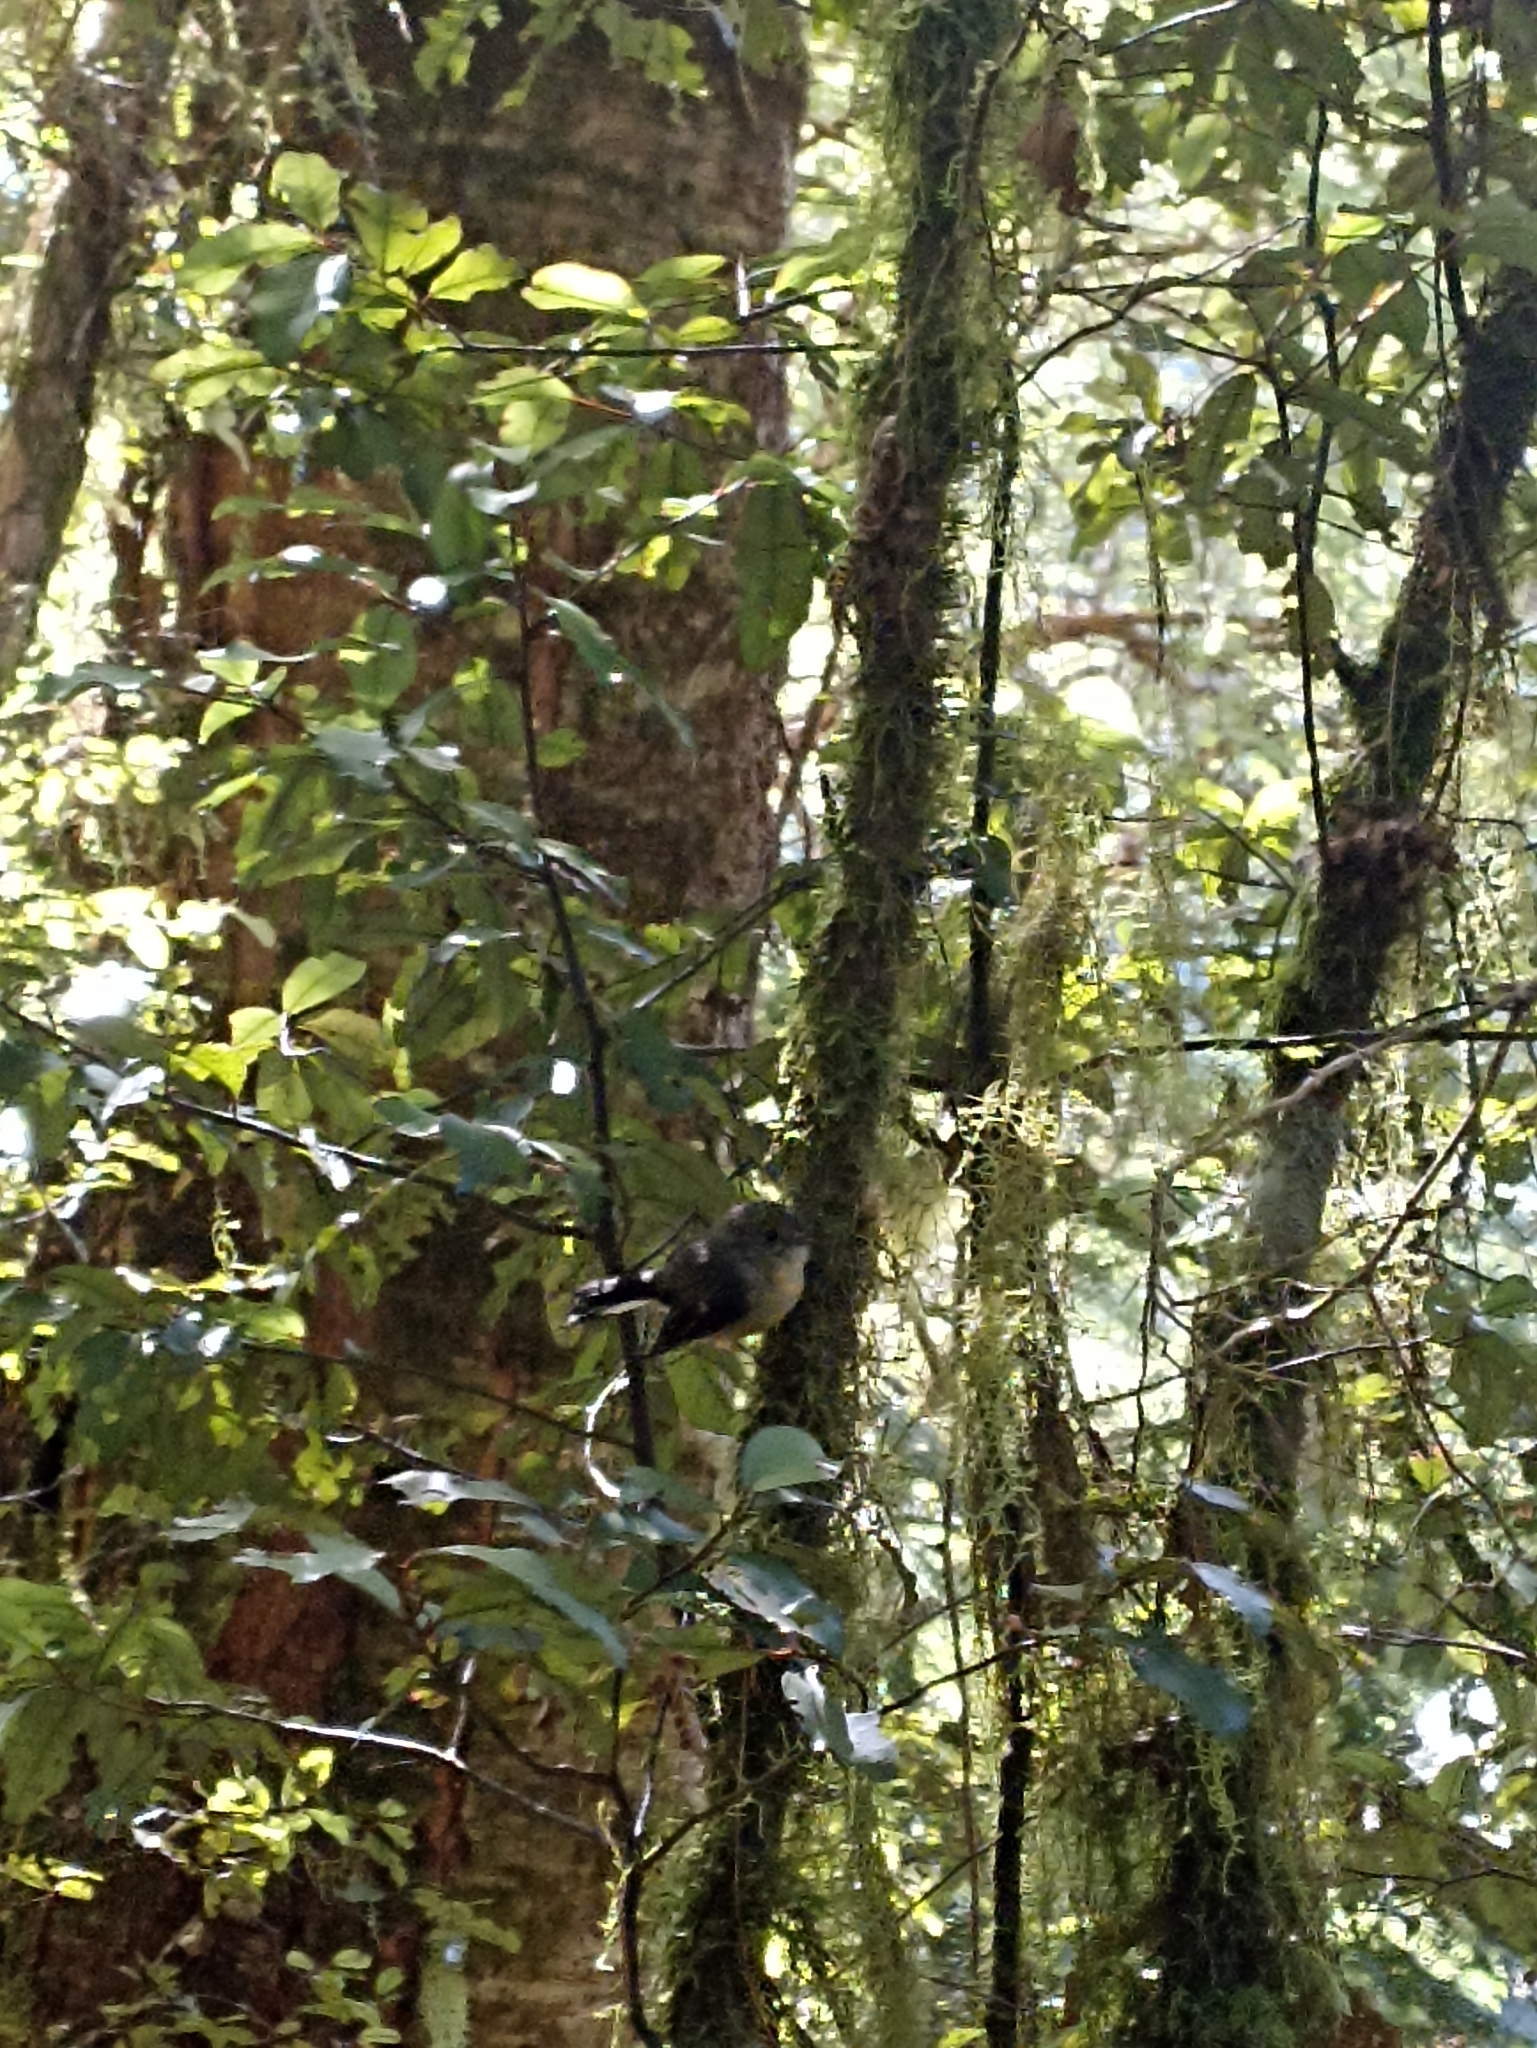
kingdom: Animalia
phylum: Chordata
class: Aves
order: Passeriformes
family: Petroicidae
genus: Petroica
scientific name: Petroica macrocephala
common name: Tomtit
